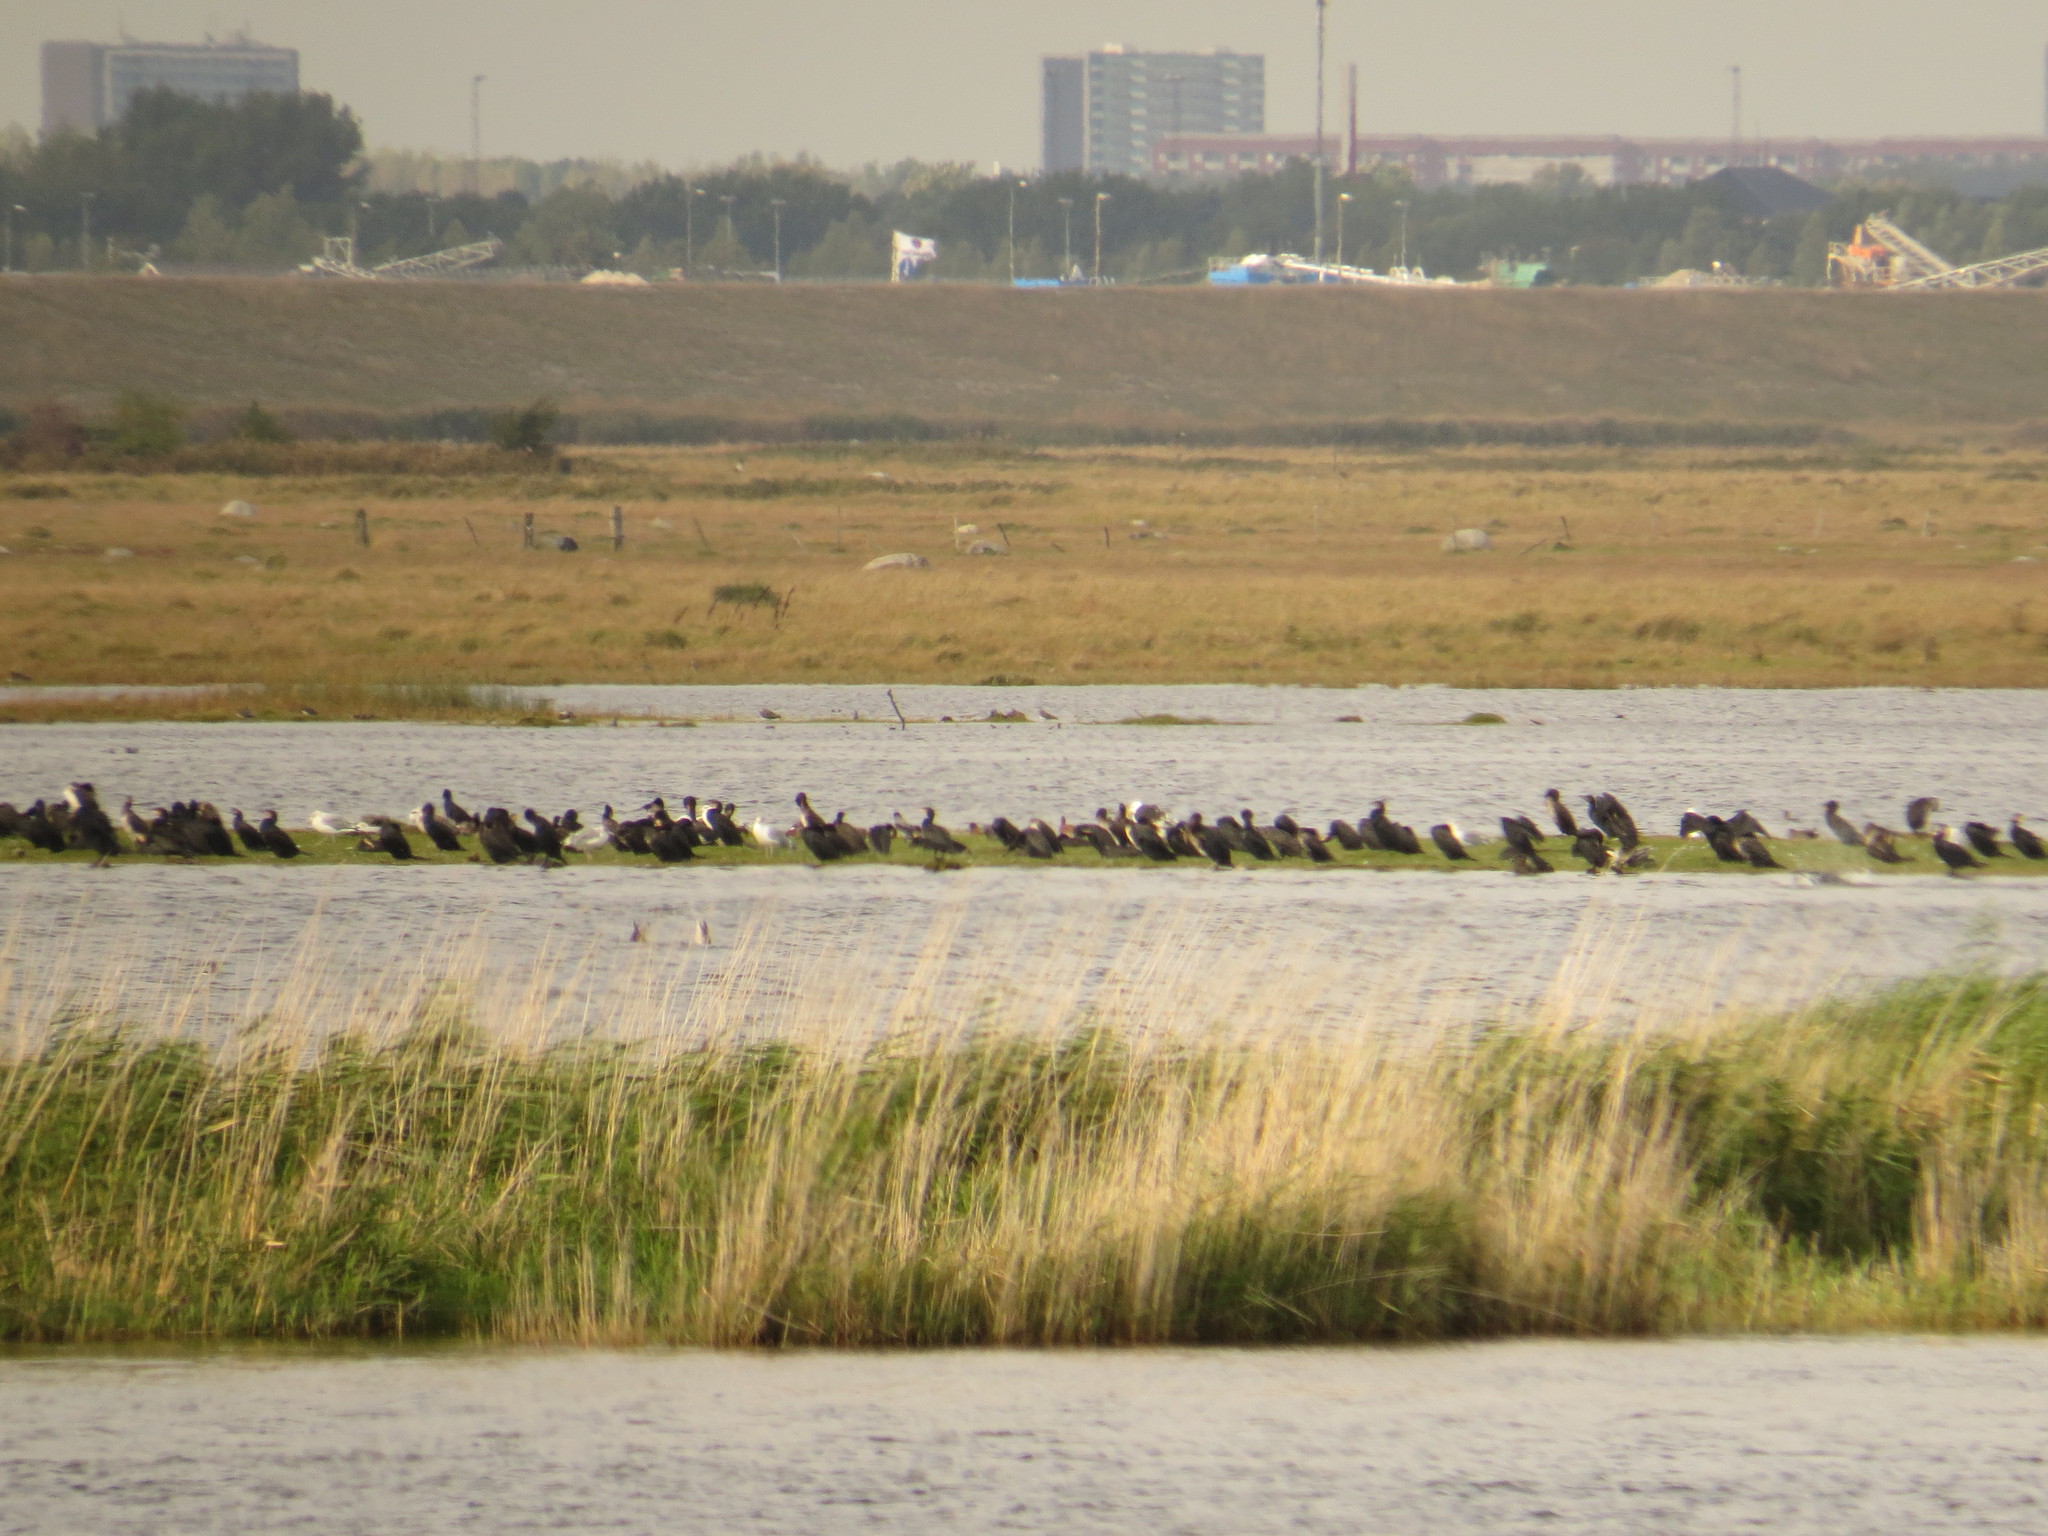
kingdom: Animalia
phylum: Chordata
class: Aves
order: Suliformes
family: Phalacrocoracidae
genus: Phalacrocorax
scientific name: Phalacrocorax carbo
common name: Great cormorant
